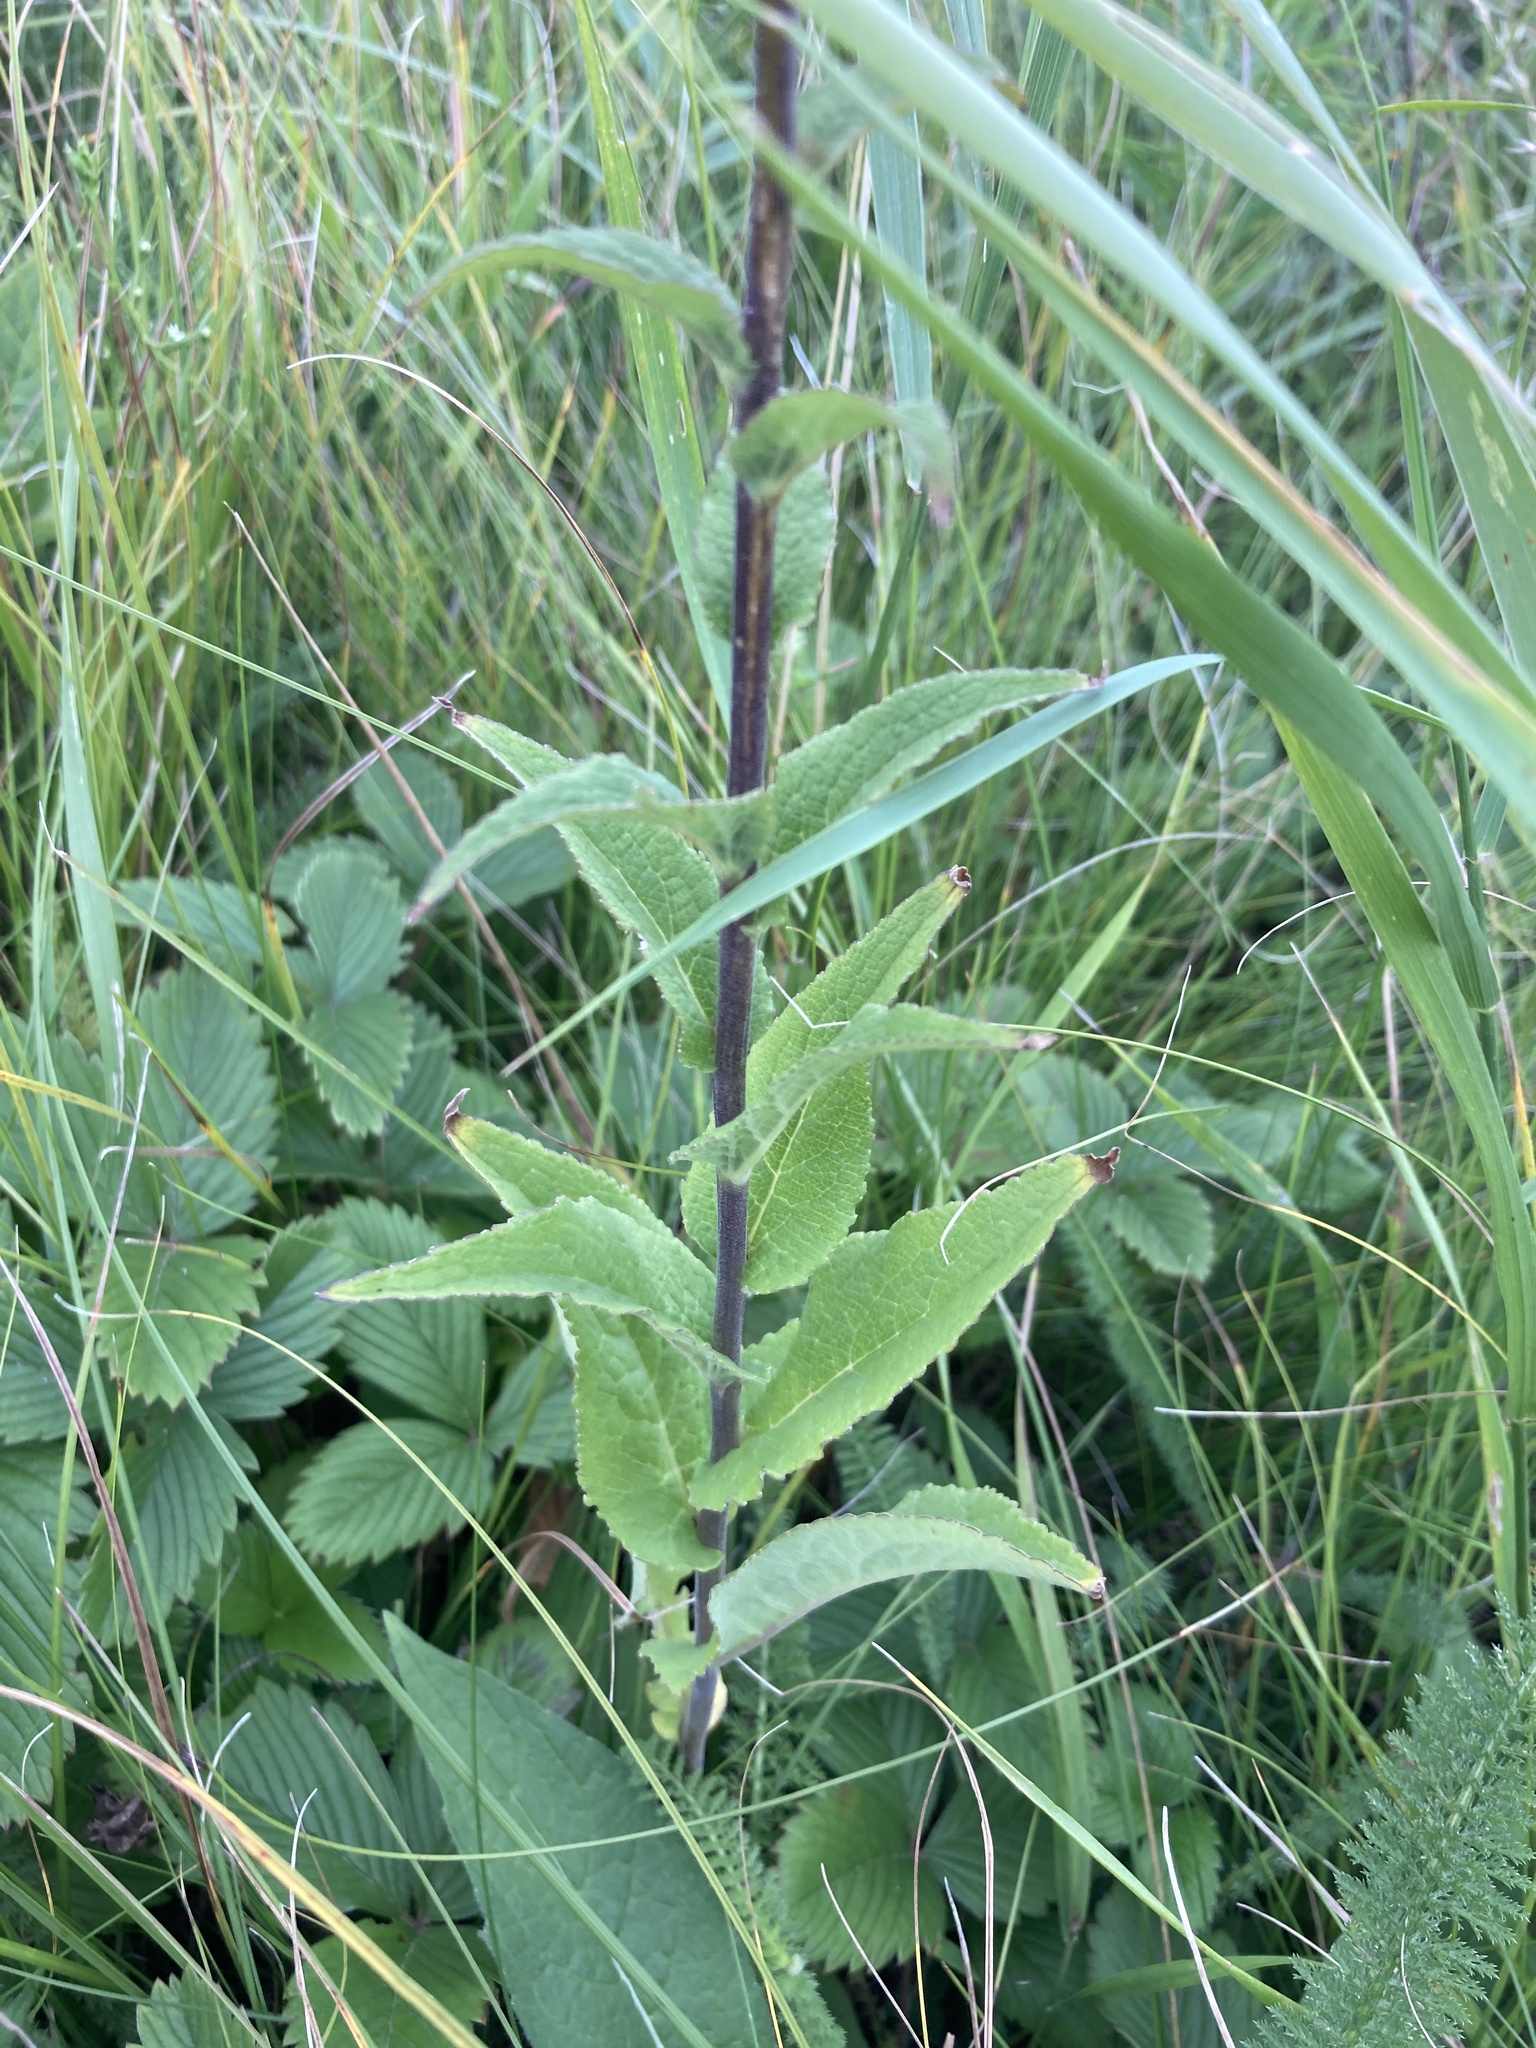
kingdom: Plantae
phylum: Tracheophyta
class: Magnoliopsida
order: Asterales
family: Campanulaceae
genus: Campanula
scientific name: Campanula bononiensis
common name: Pale bellflower
